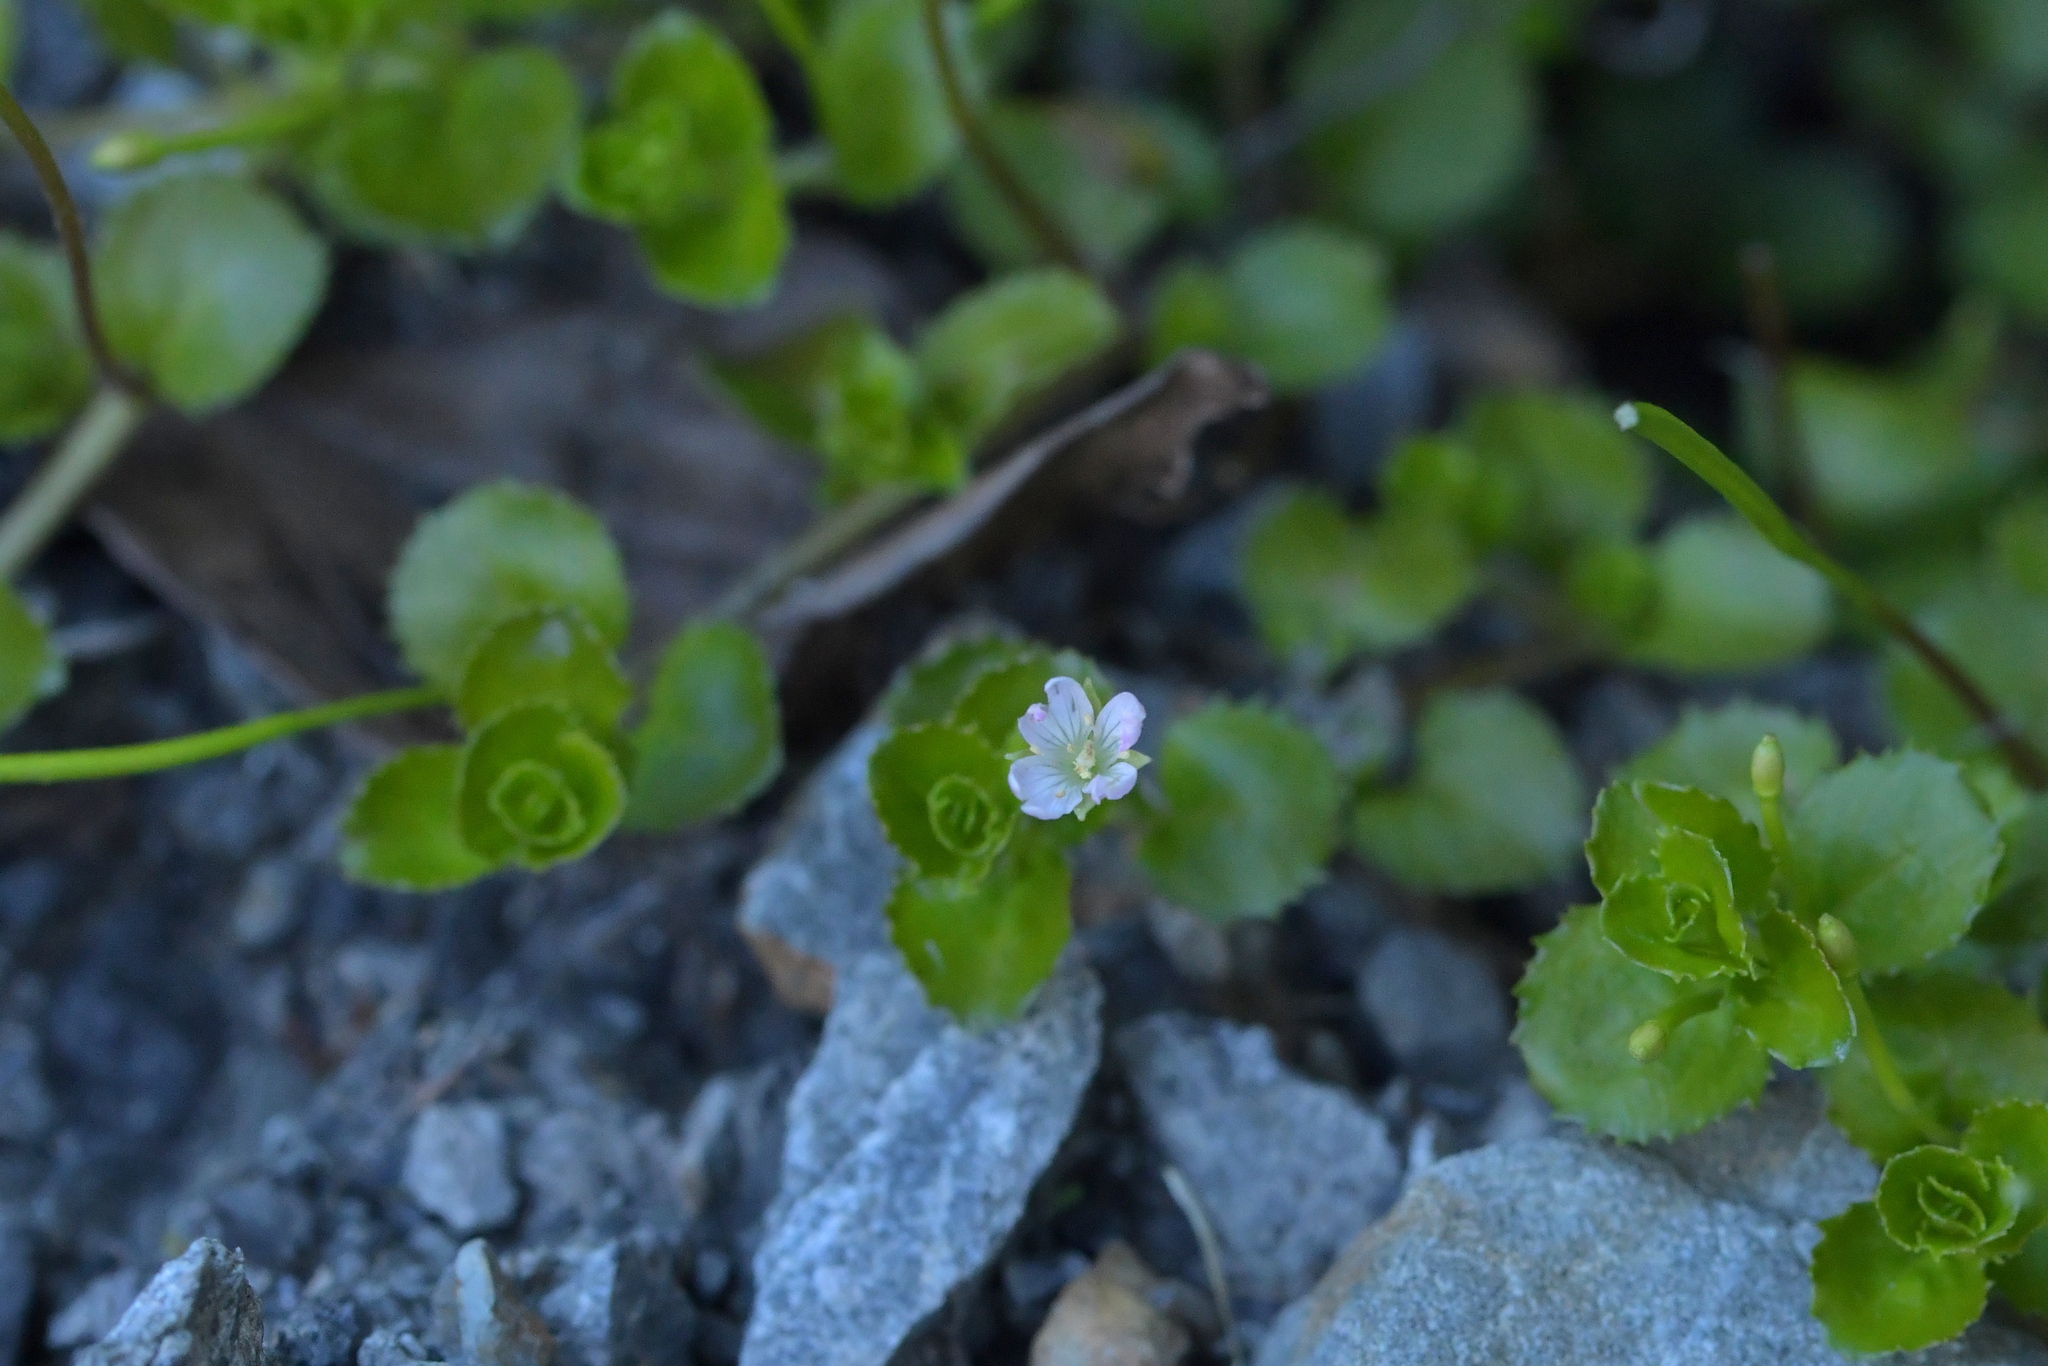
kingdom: Plantae
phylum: Tracheophyta
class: Magnoliopsida
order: Myrtales
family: Onagraceae
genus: Epilobium
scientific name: Epilobium pedunculare
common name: Rockery willowherb
